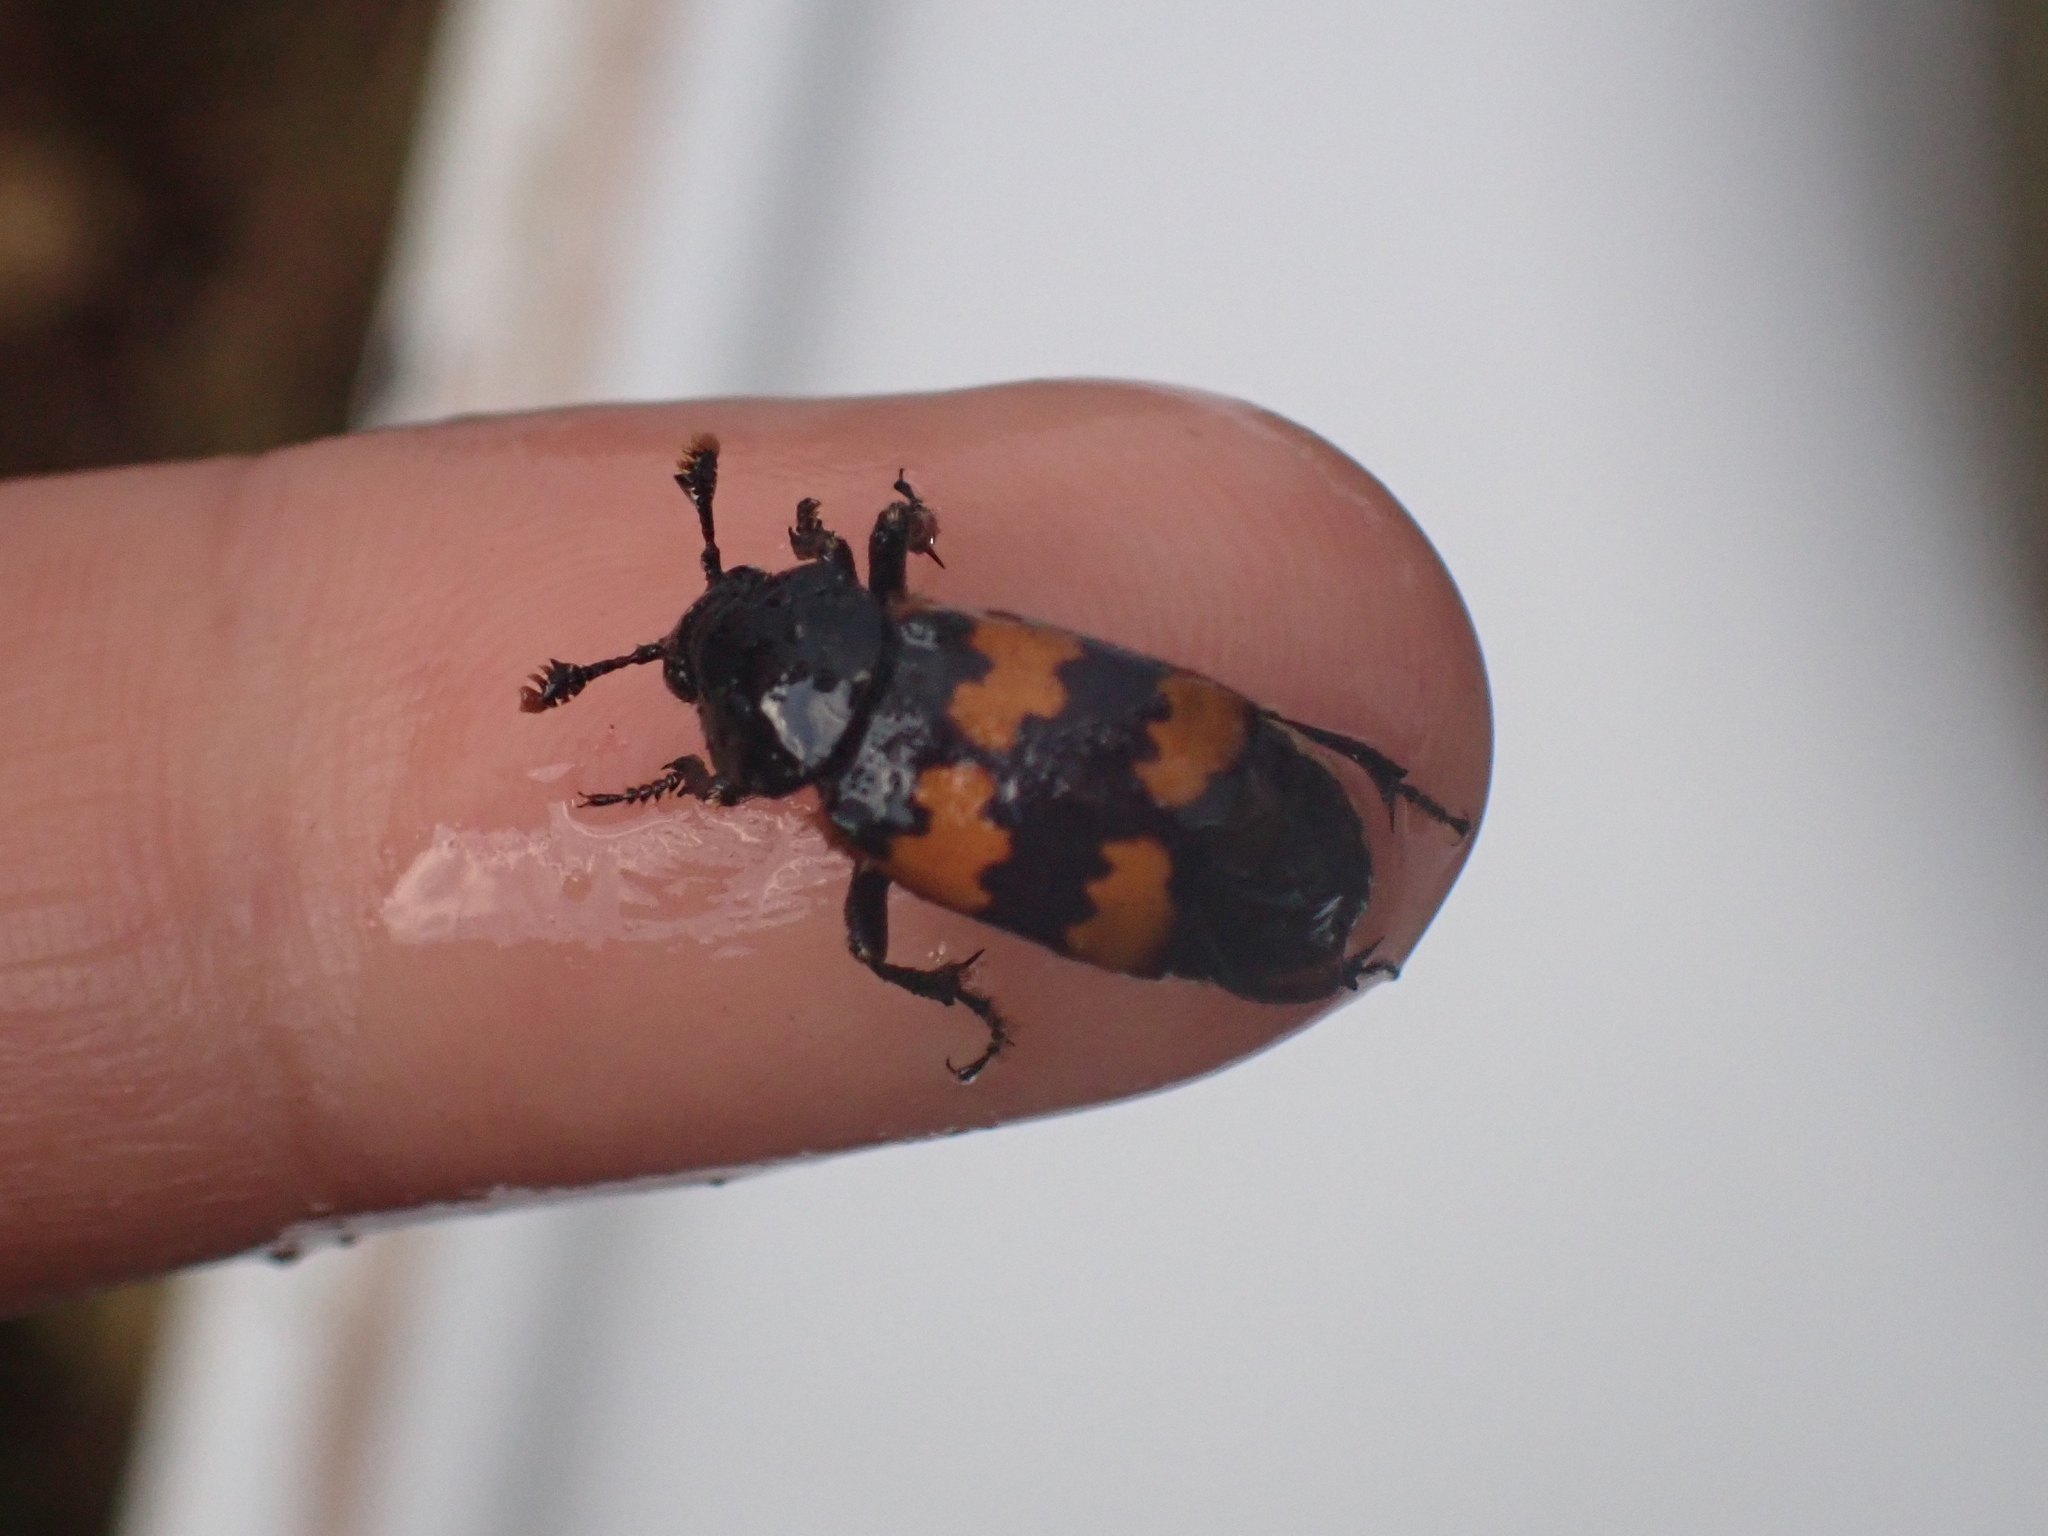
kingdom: Animalia
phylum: Arthropoda
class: Insecta
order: Coleoptera
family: Staphylinidae
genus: Nicrophorus
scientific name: Nicrophorus vespillo
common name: Common burying beetle
